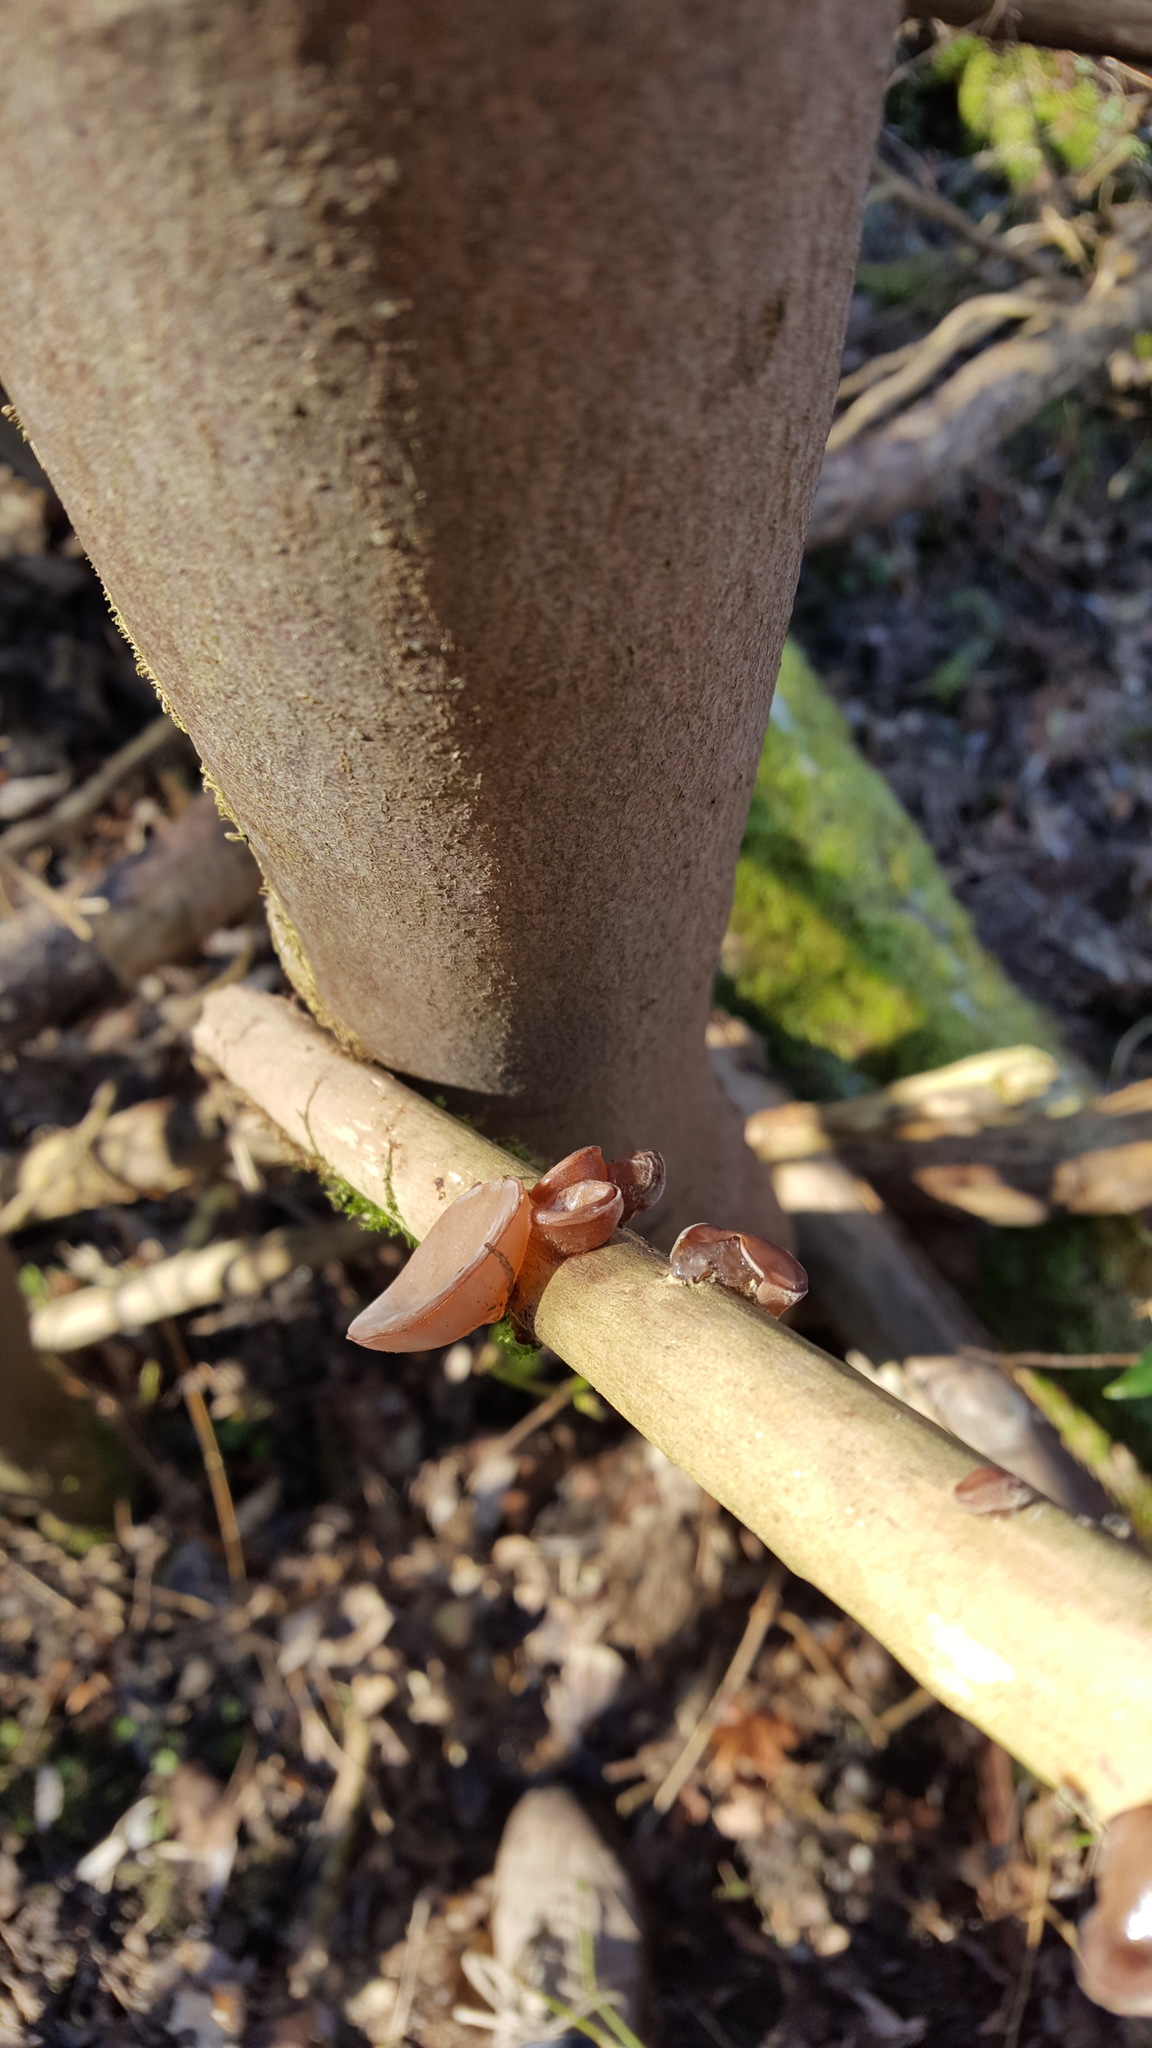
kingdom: Fungi
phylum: Basidiomycota
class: Agaricomycetes
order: Auriculariales
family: Auriculariaceae
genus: Auricularia
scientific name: Auricularia auricula-judae
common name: Jelly ear
